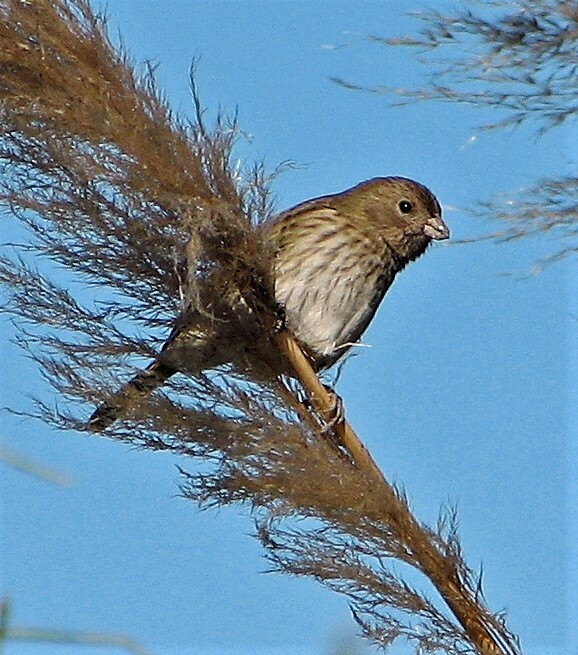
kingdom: Animalia
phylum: Chordata
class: Aves
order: Passeriformes
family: Thraupidae
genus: Sicalis
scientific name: Sicalis flaveola
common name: Saffron finch
